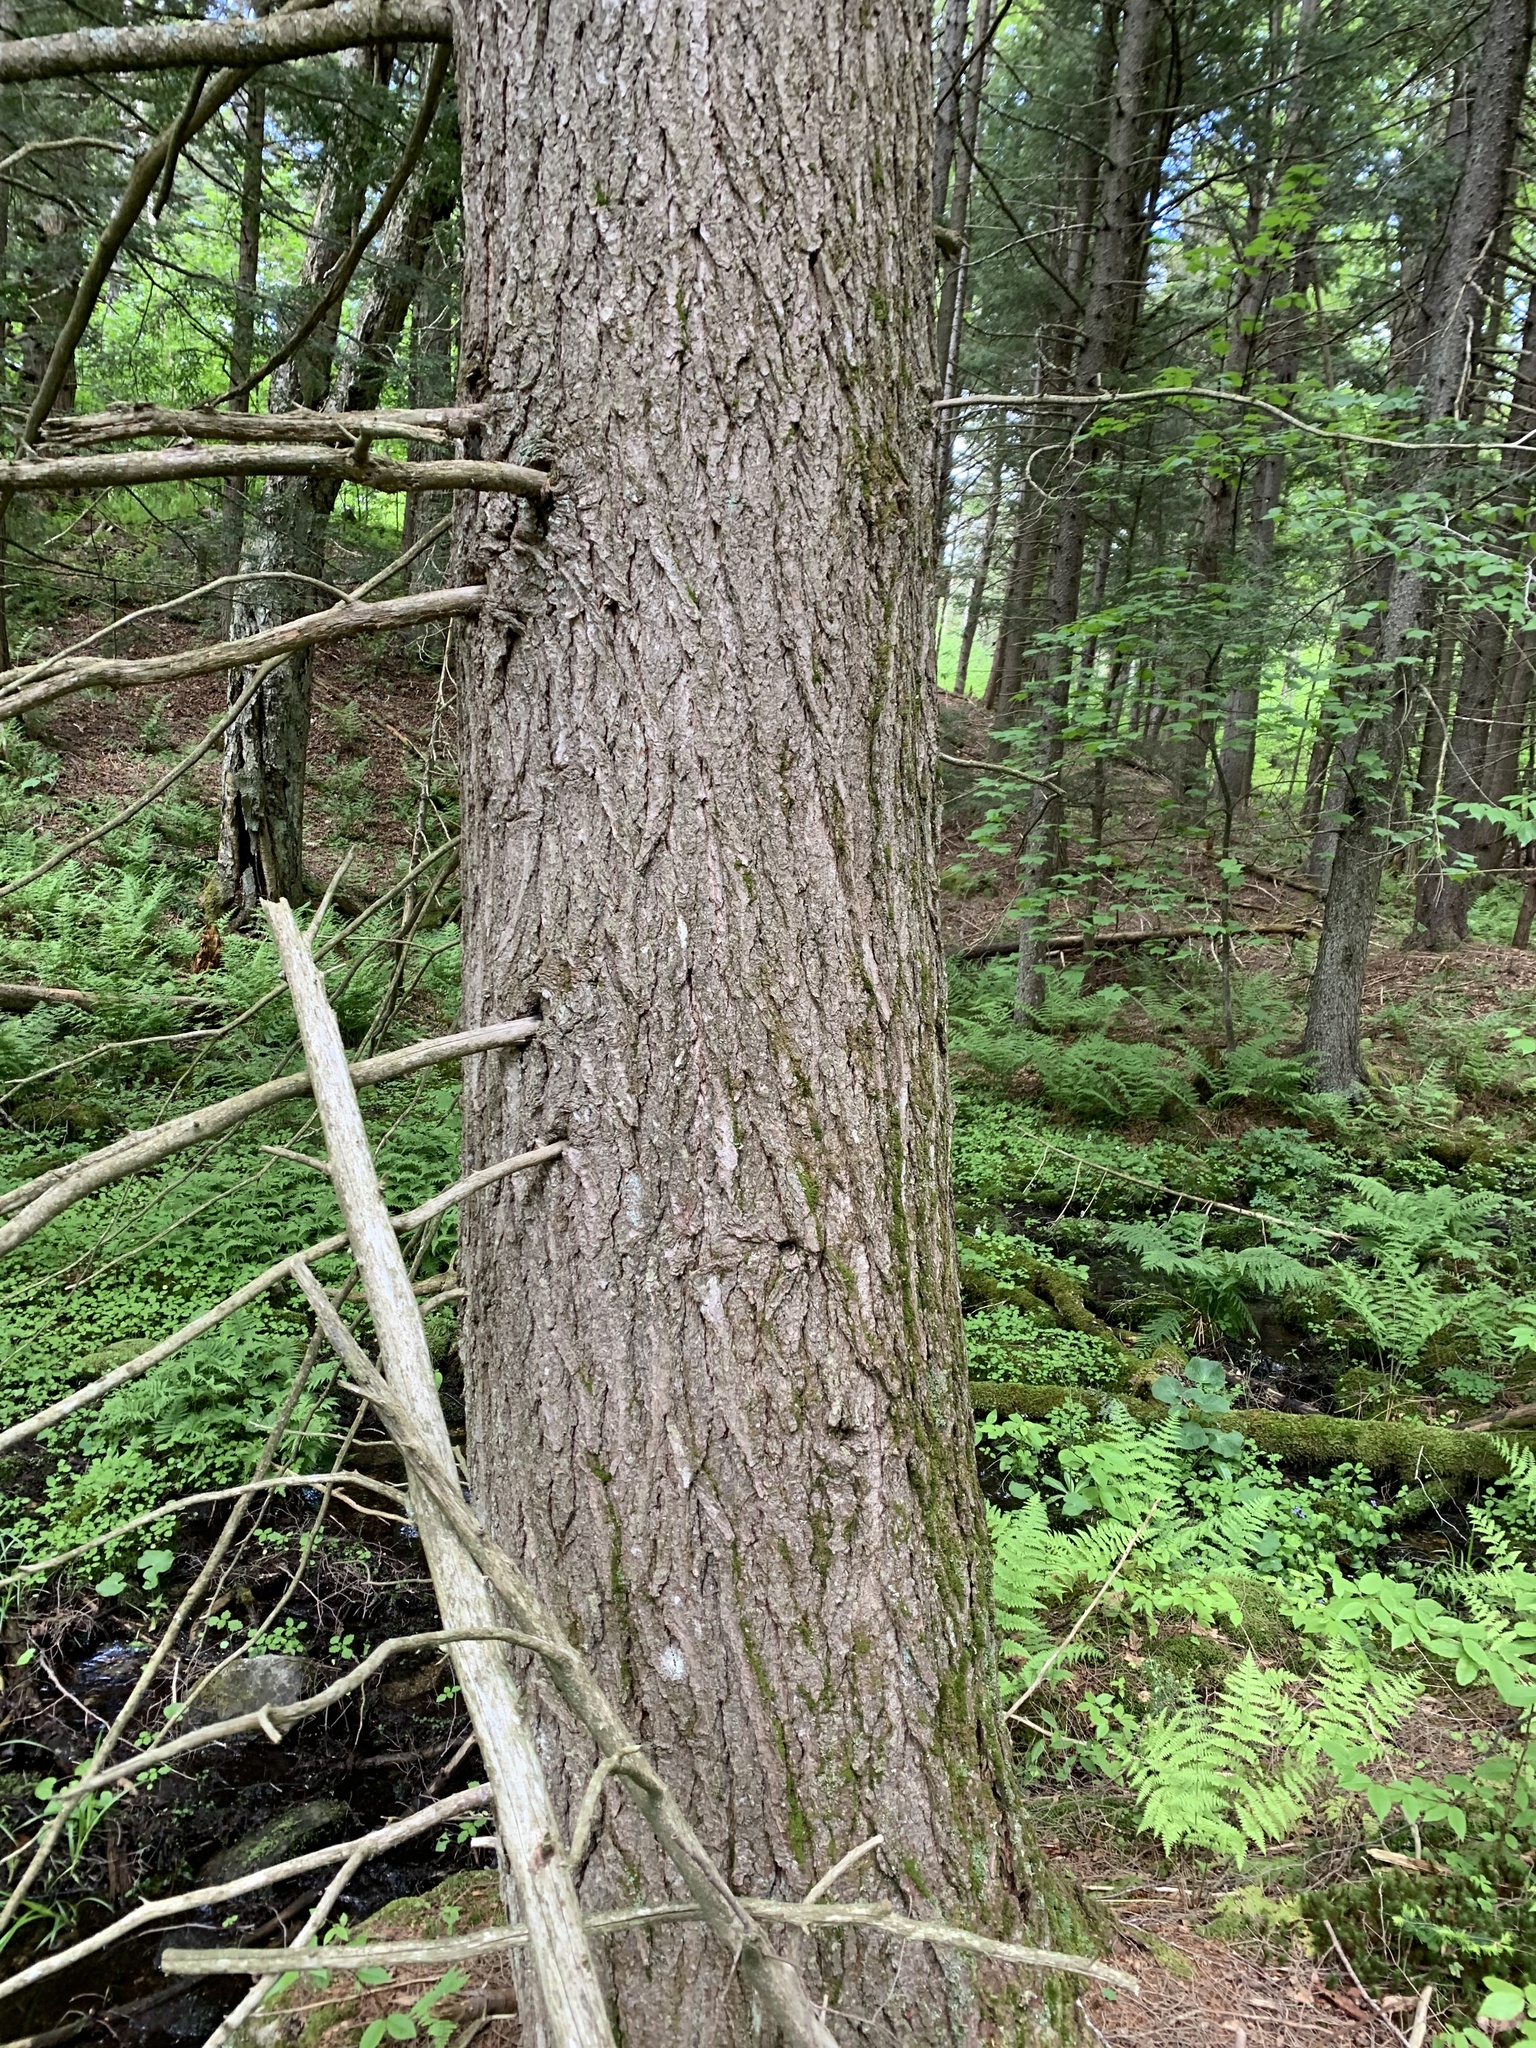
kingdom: Plantae
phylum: Tracheophyta
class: Pinopsida
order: Pinales
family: Pinaceae
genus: Tsuga
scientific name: Tsuga canadensis
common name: Eastern hemlock
